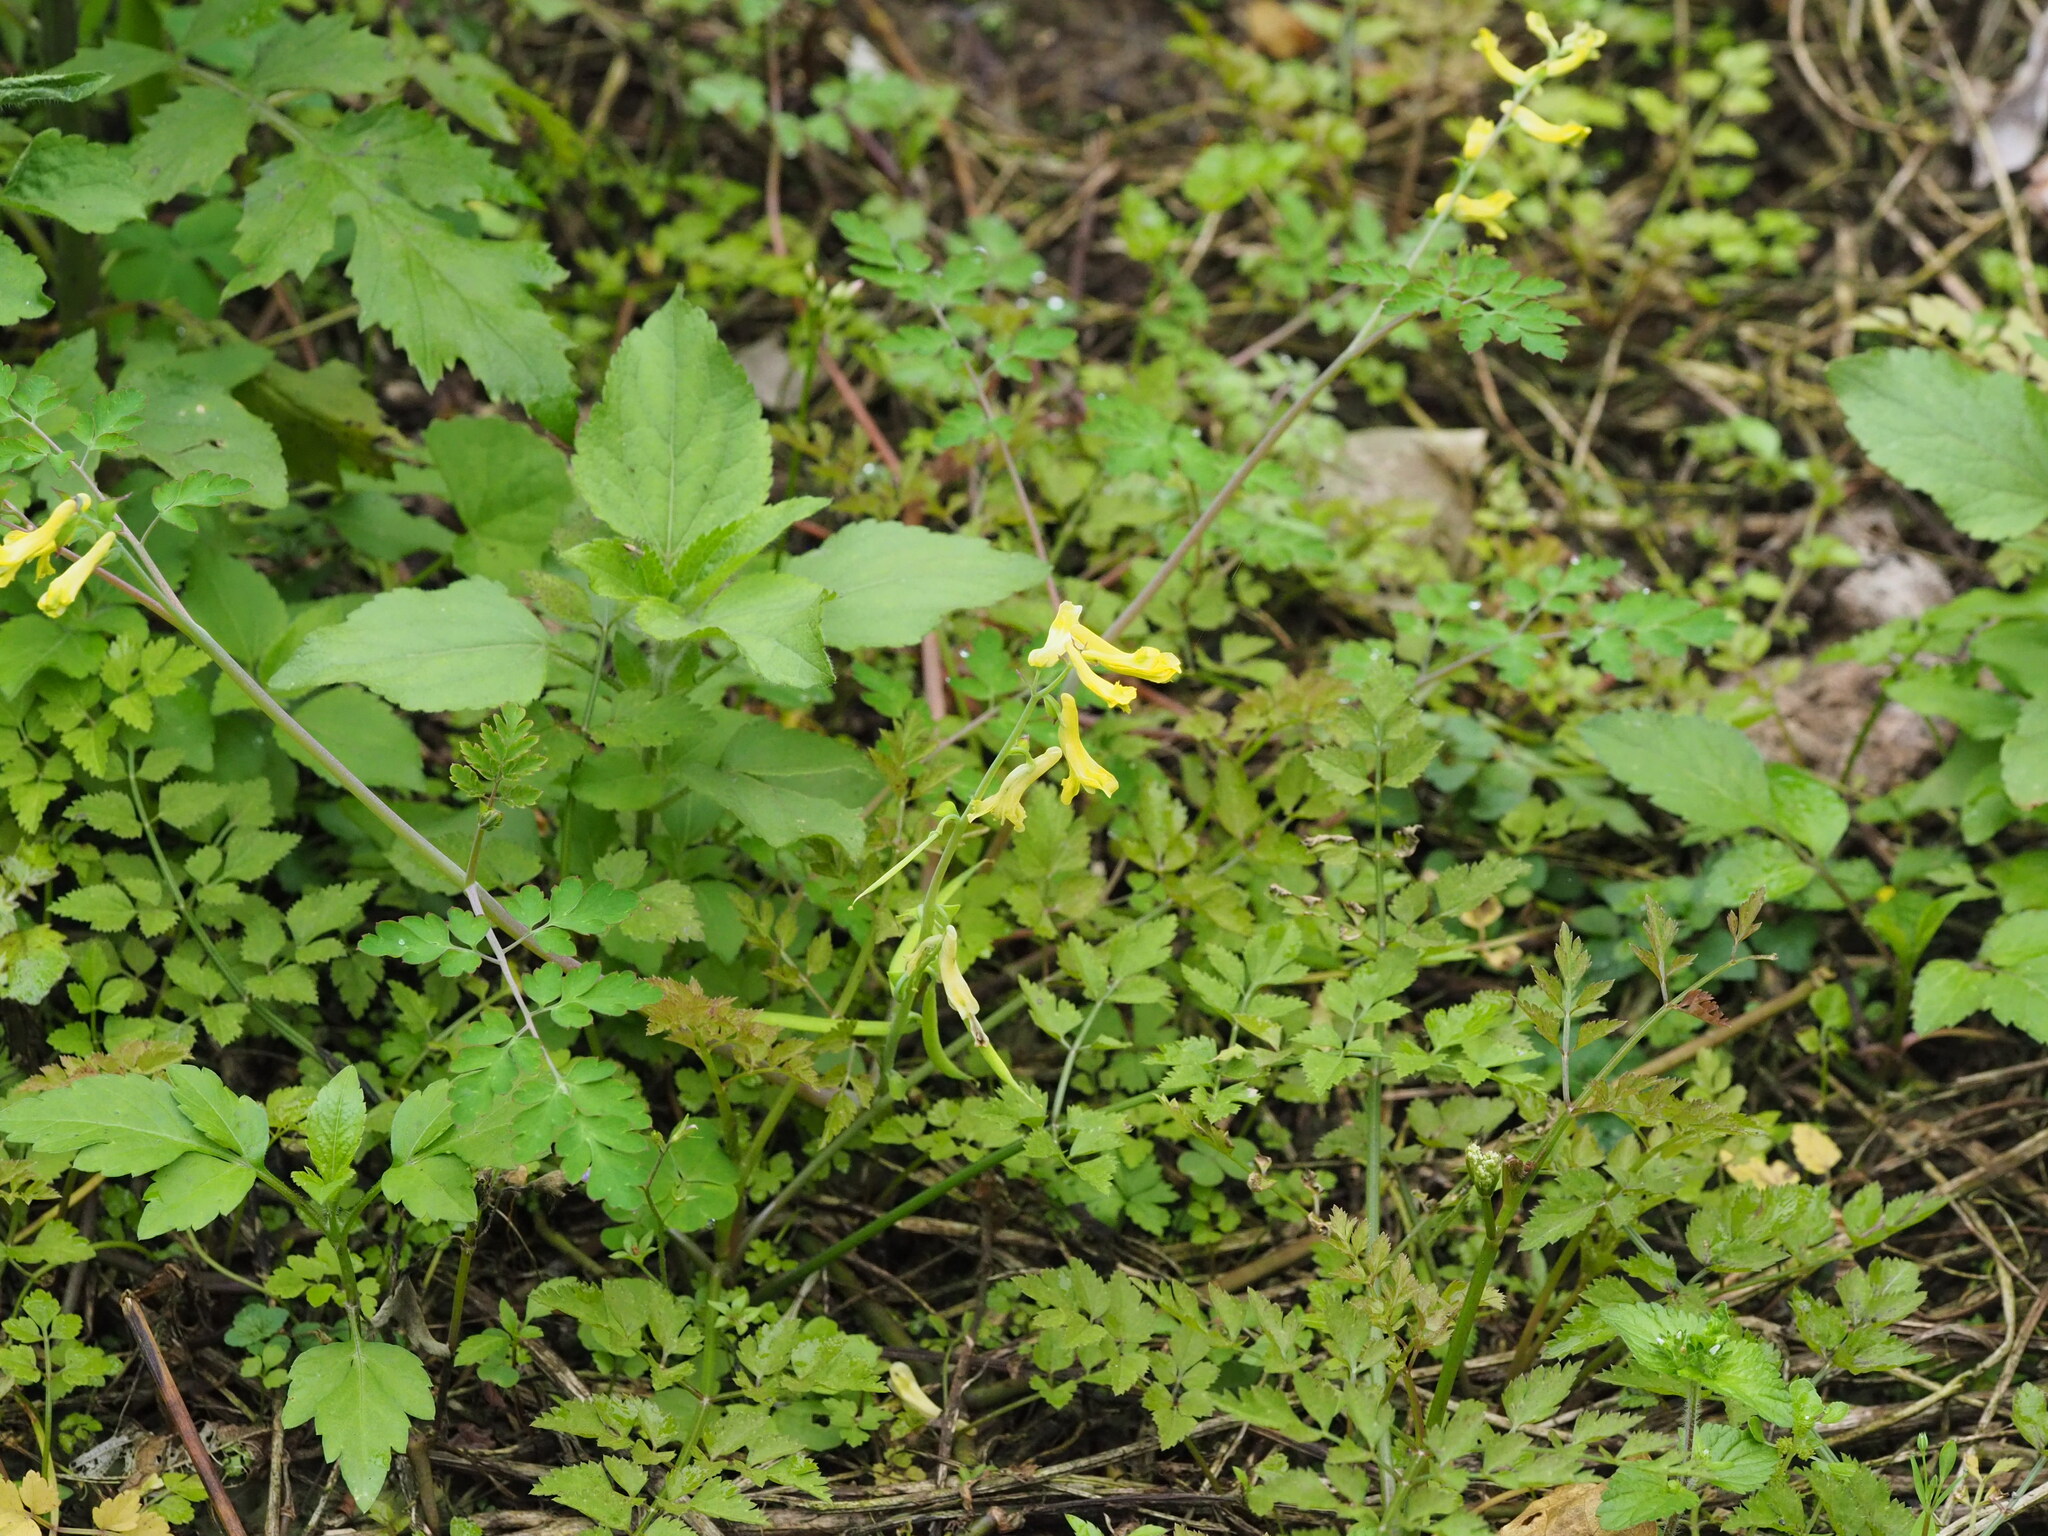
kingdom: Plantae
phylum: Tracheophyta
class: Magnoliopsida
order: Ranunculales
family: Papaveraceae
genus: Corydalis
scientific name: Corydalis balansae
